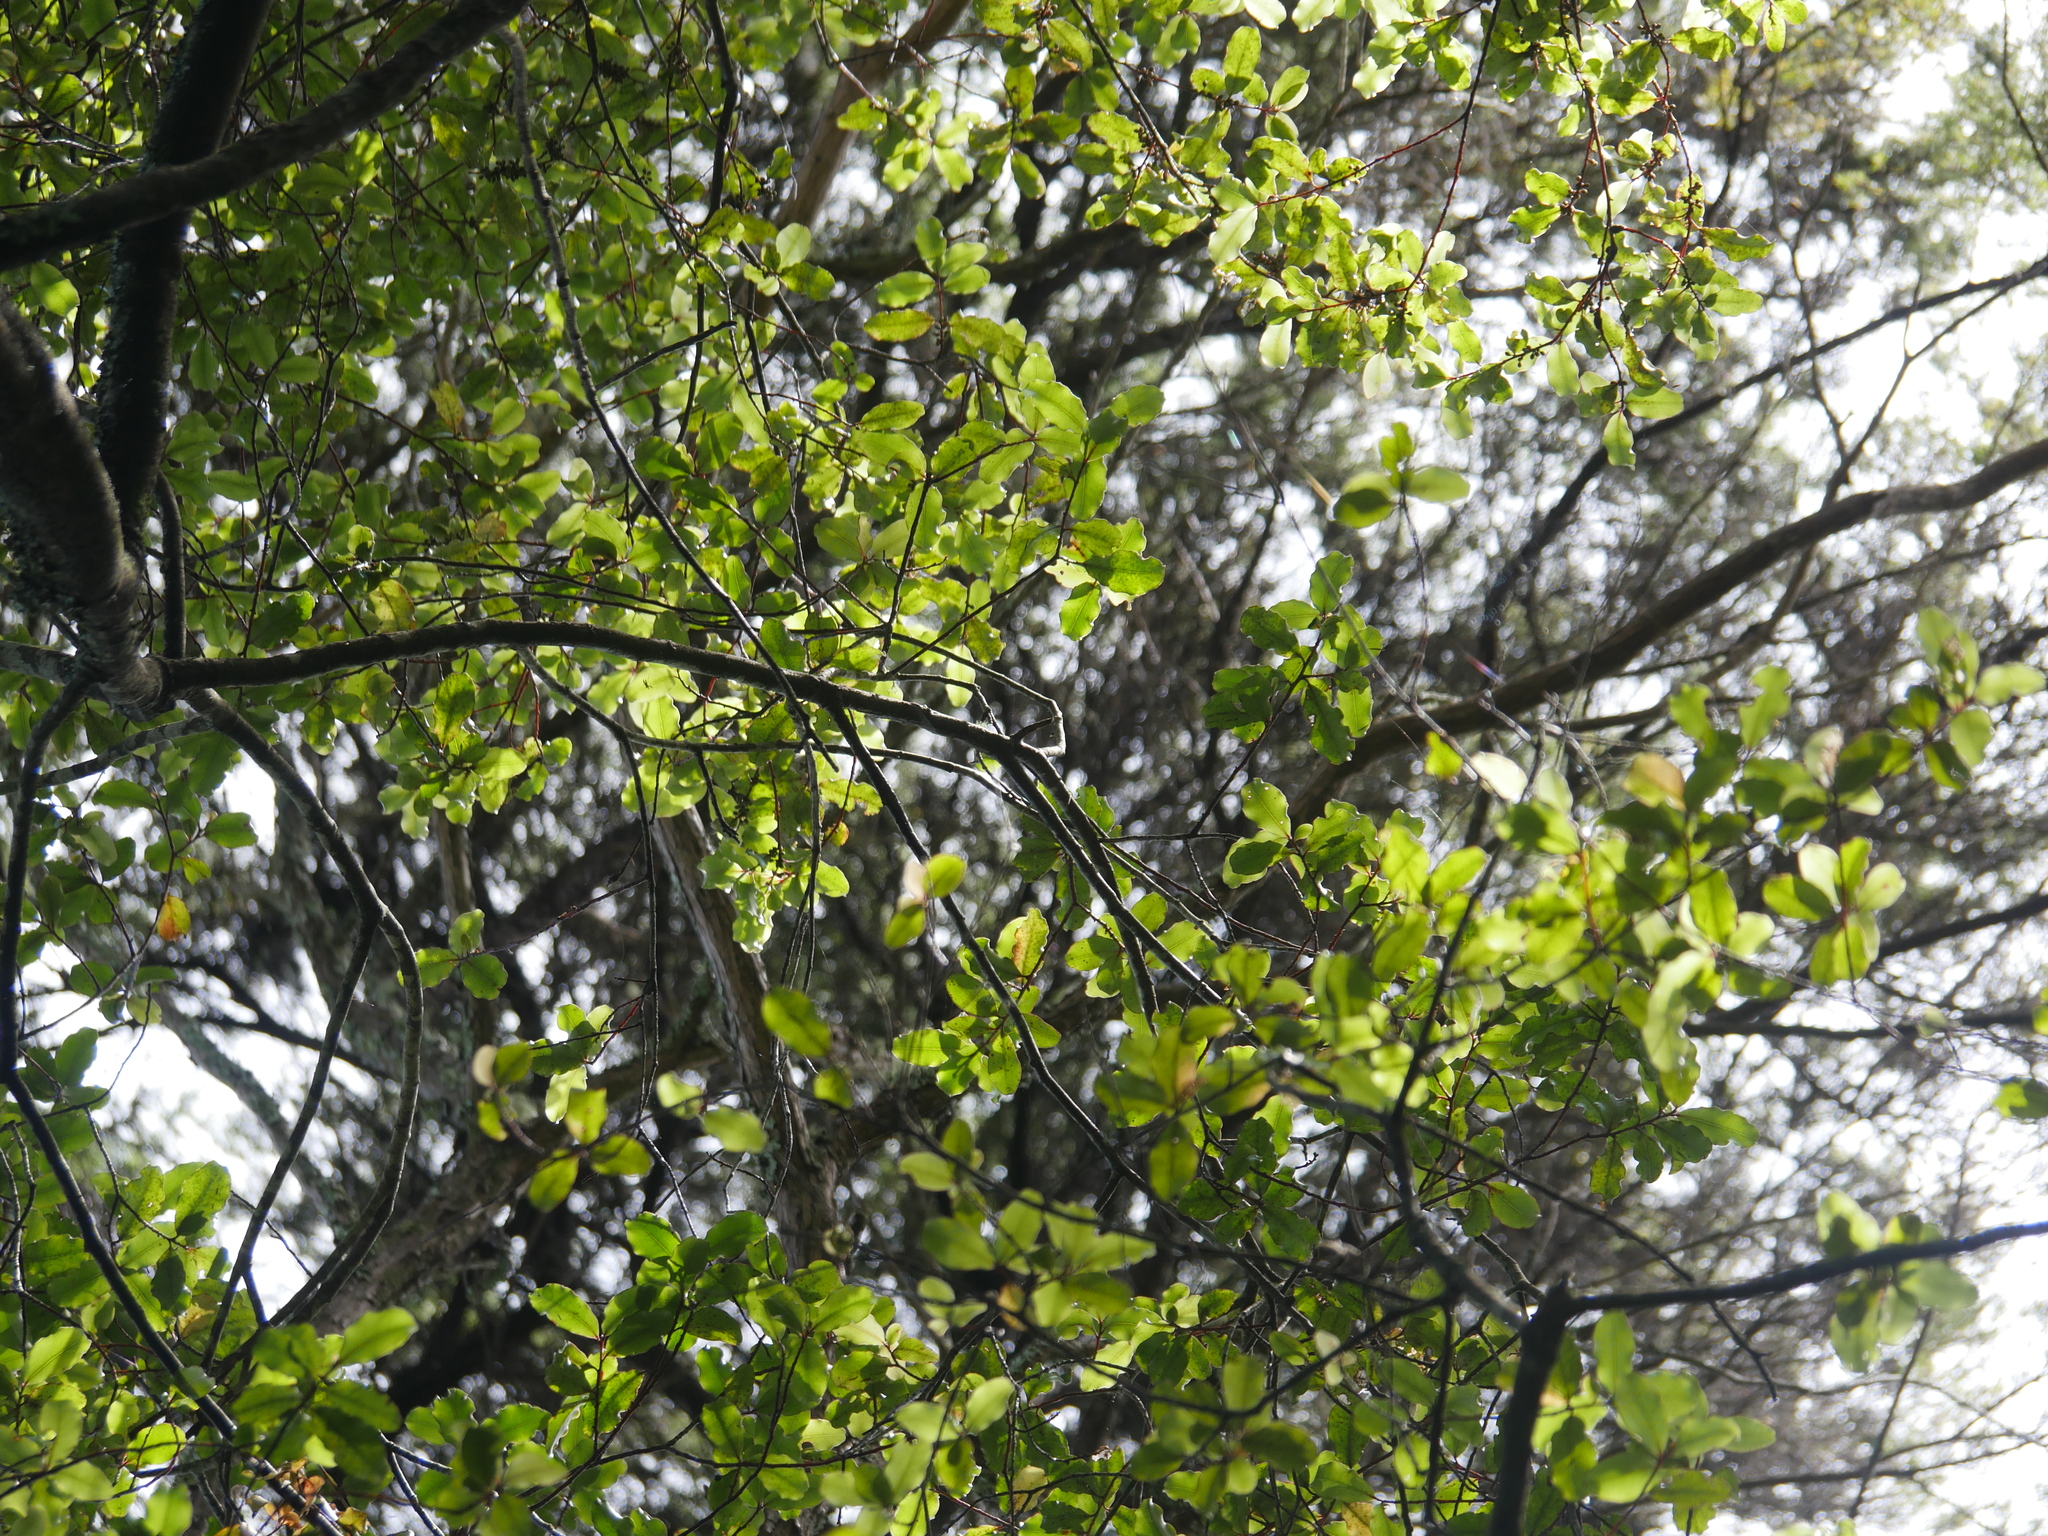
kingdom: Plantae
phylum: Tracheophyta
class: Magnoliopsida
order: Ericales
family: Primulaceae
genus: Myrsine
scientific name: Myrsine australis
